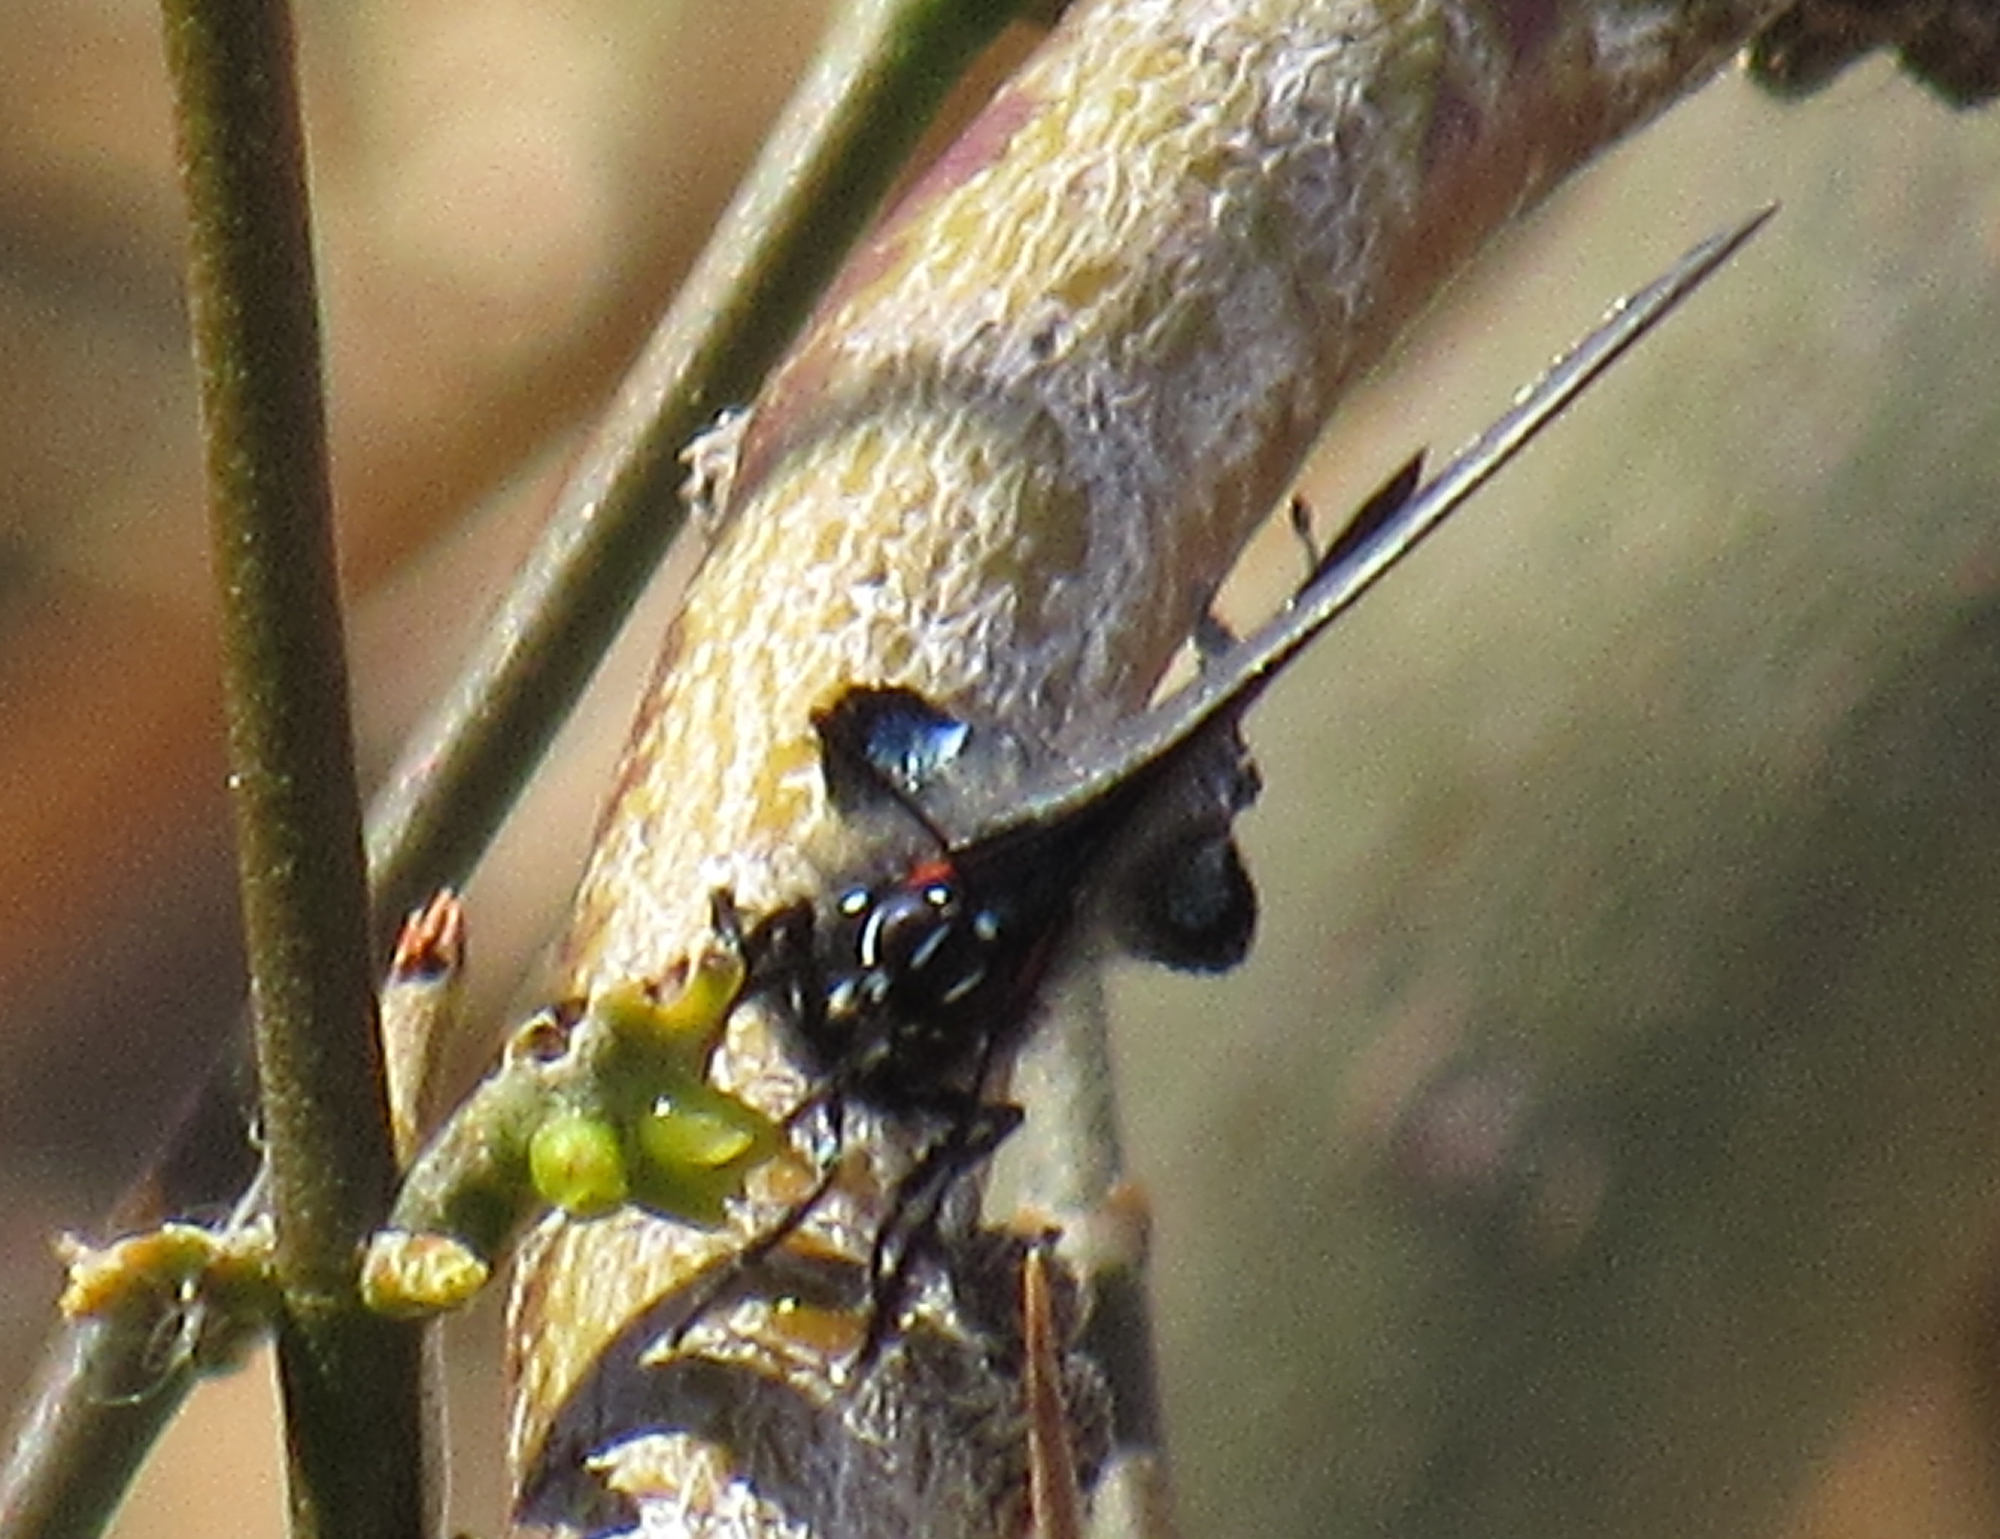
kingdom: Animalia
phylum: Arthropoda
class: Insecta
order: Lepidoptera
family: Lycaenidae
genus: Atlides
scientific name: Atlides halesus
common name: Great purple hairstreak
